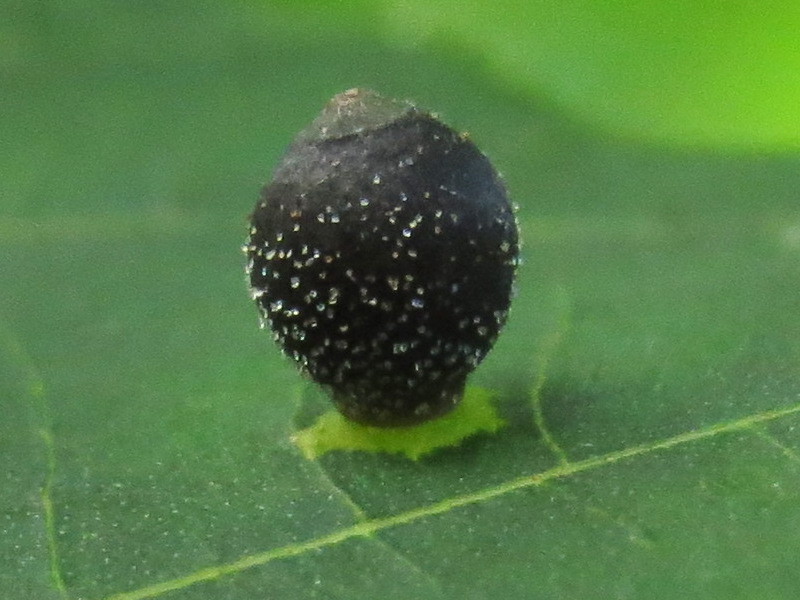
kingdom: Animalia
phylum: Arthropoda
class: Insecta
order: Diptera
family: Cecidomyiidae
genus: Caryomyia
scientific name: Caryomyia viscidolium
